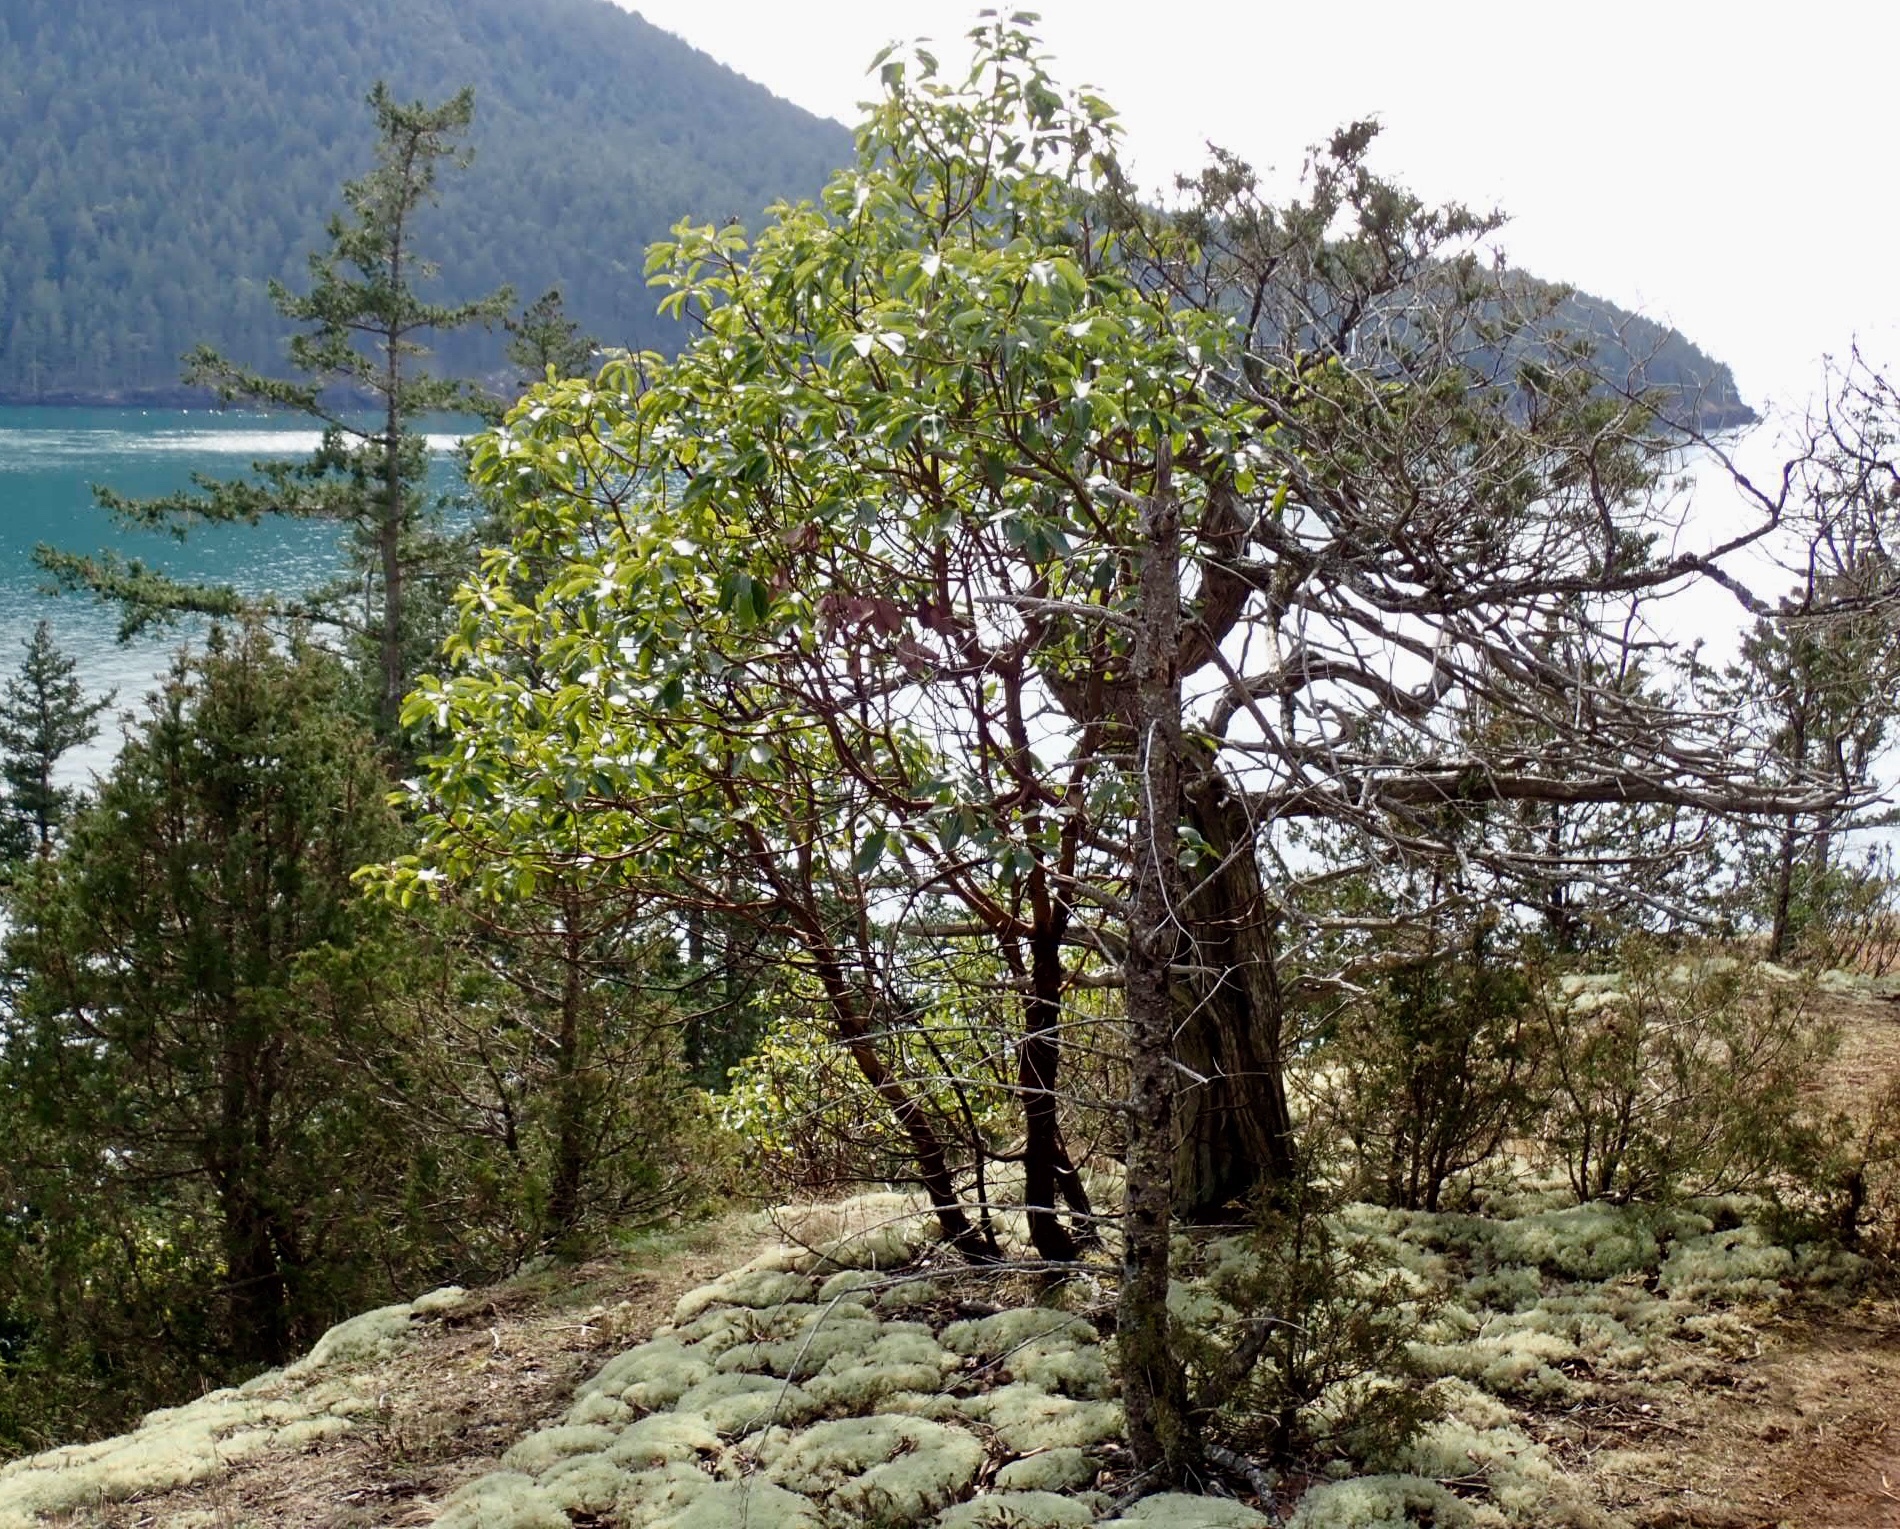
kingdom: Plantae
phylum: Tracheophyta
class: Magnoliopsida
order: Ericales
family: Ericaceae
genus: Arbutus
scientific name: Arbutus menziesii
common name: Pacific madrone
